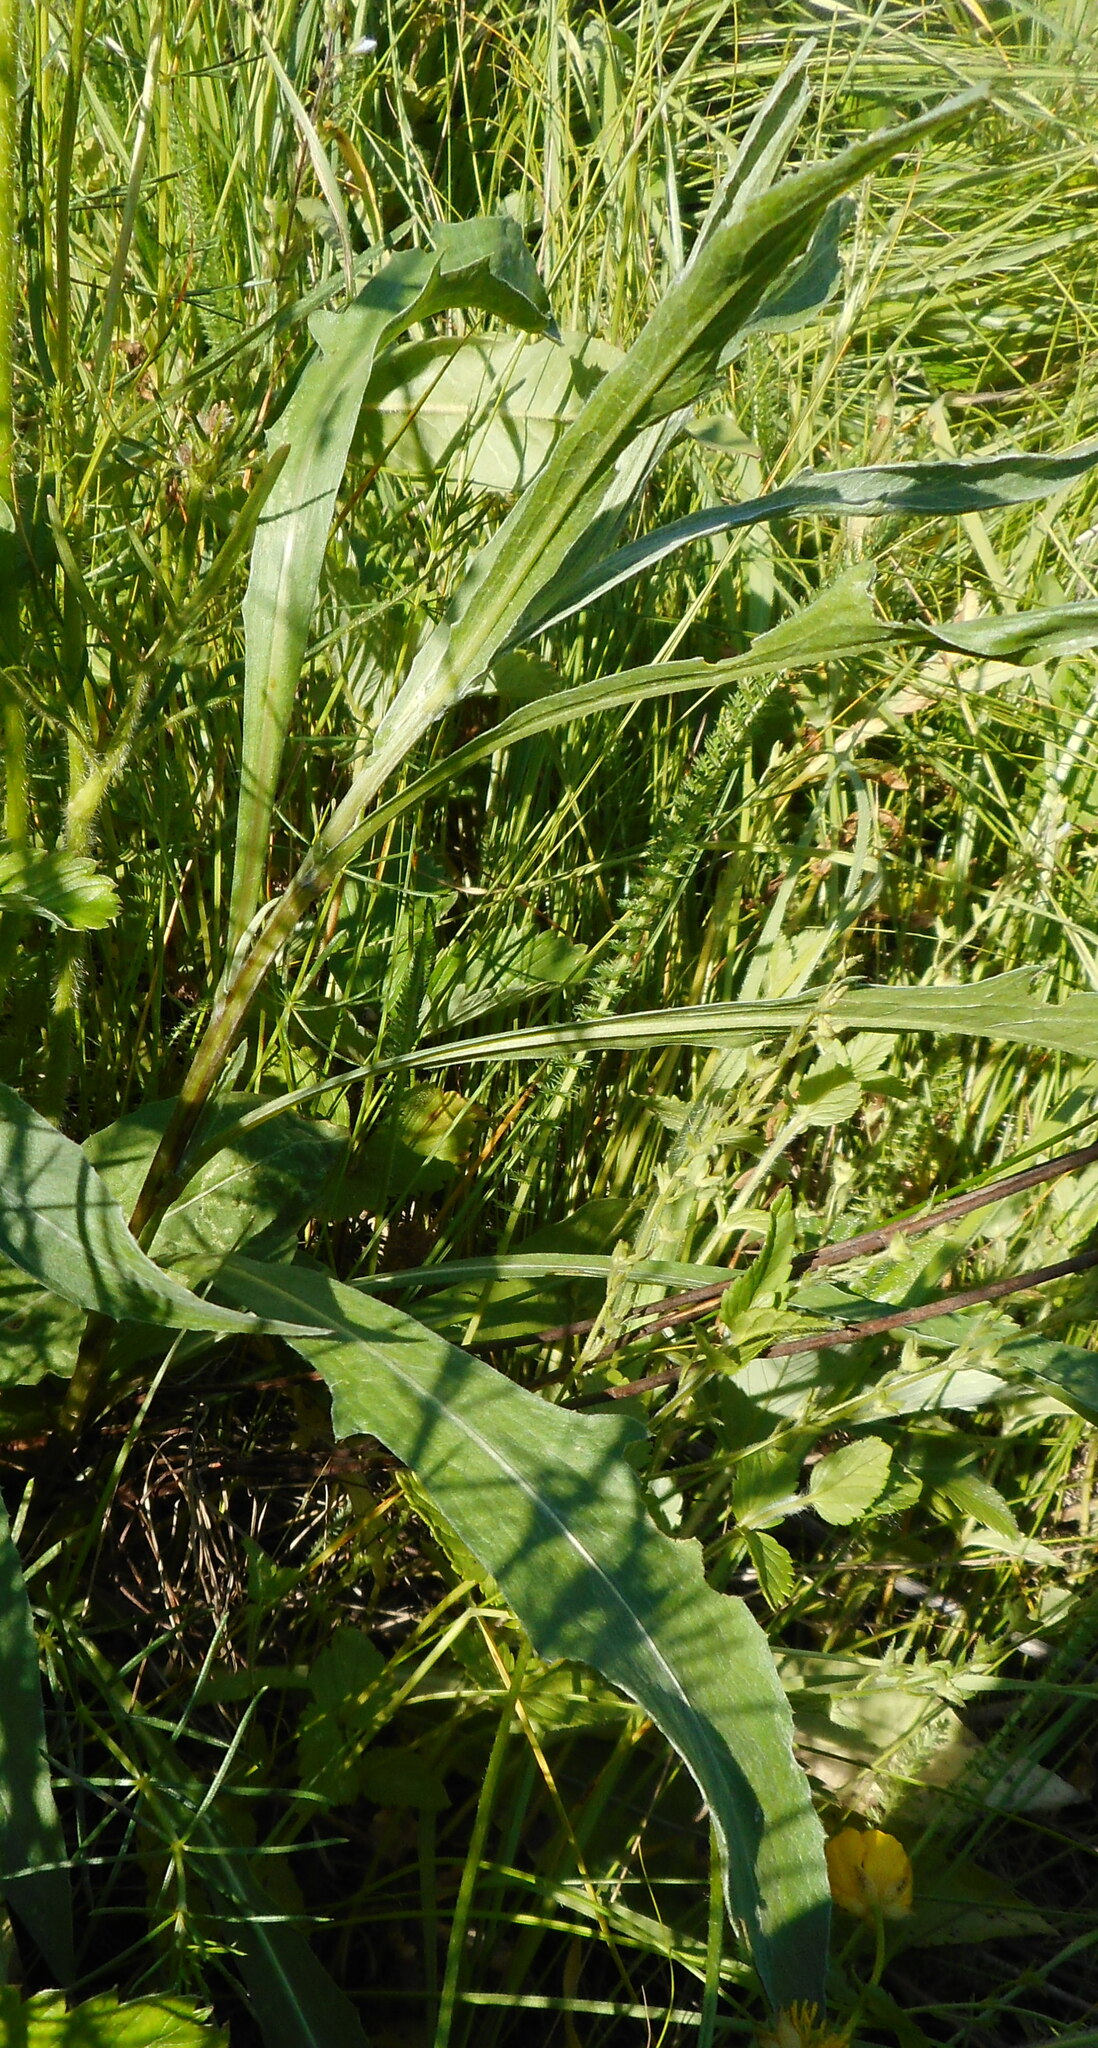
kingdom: Plantae
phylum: Tracheophyta
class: Magnoliopsida
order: Asterales
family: Asteraceae
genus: Centaurea
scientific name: Centaurea jacea
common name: Brown knapweed
